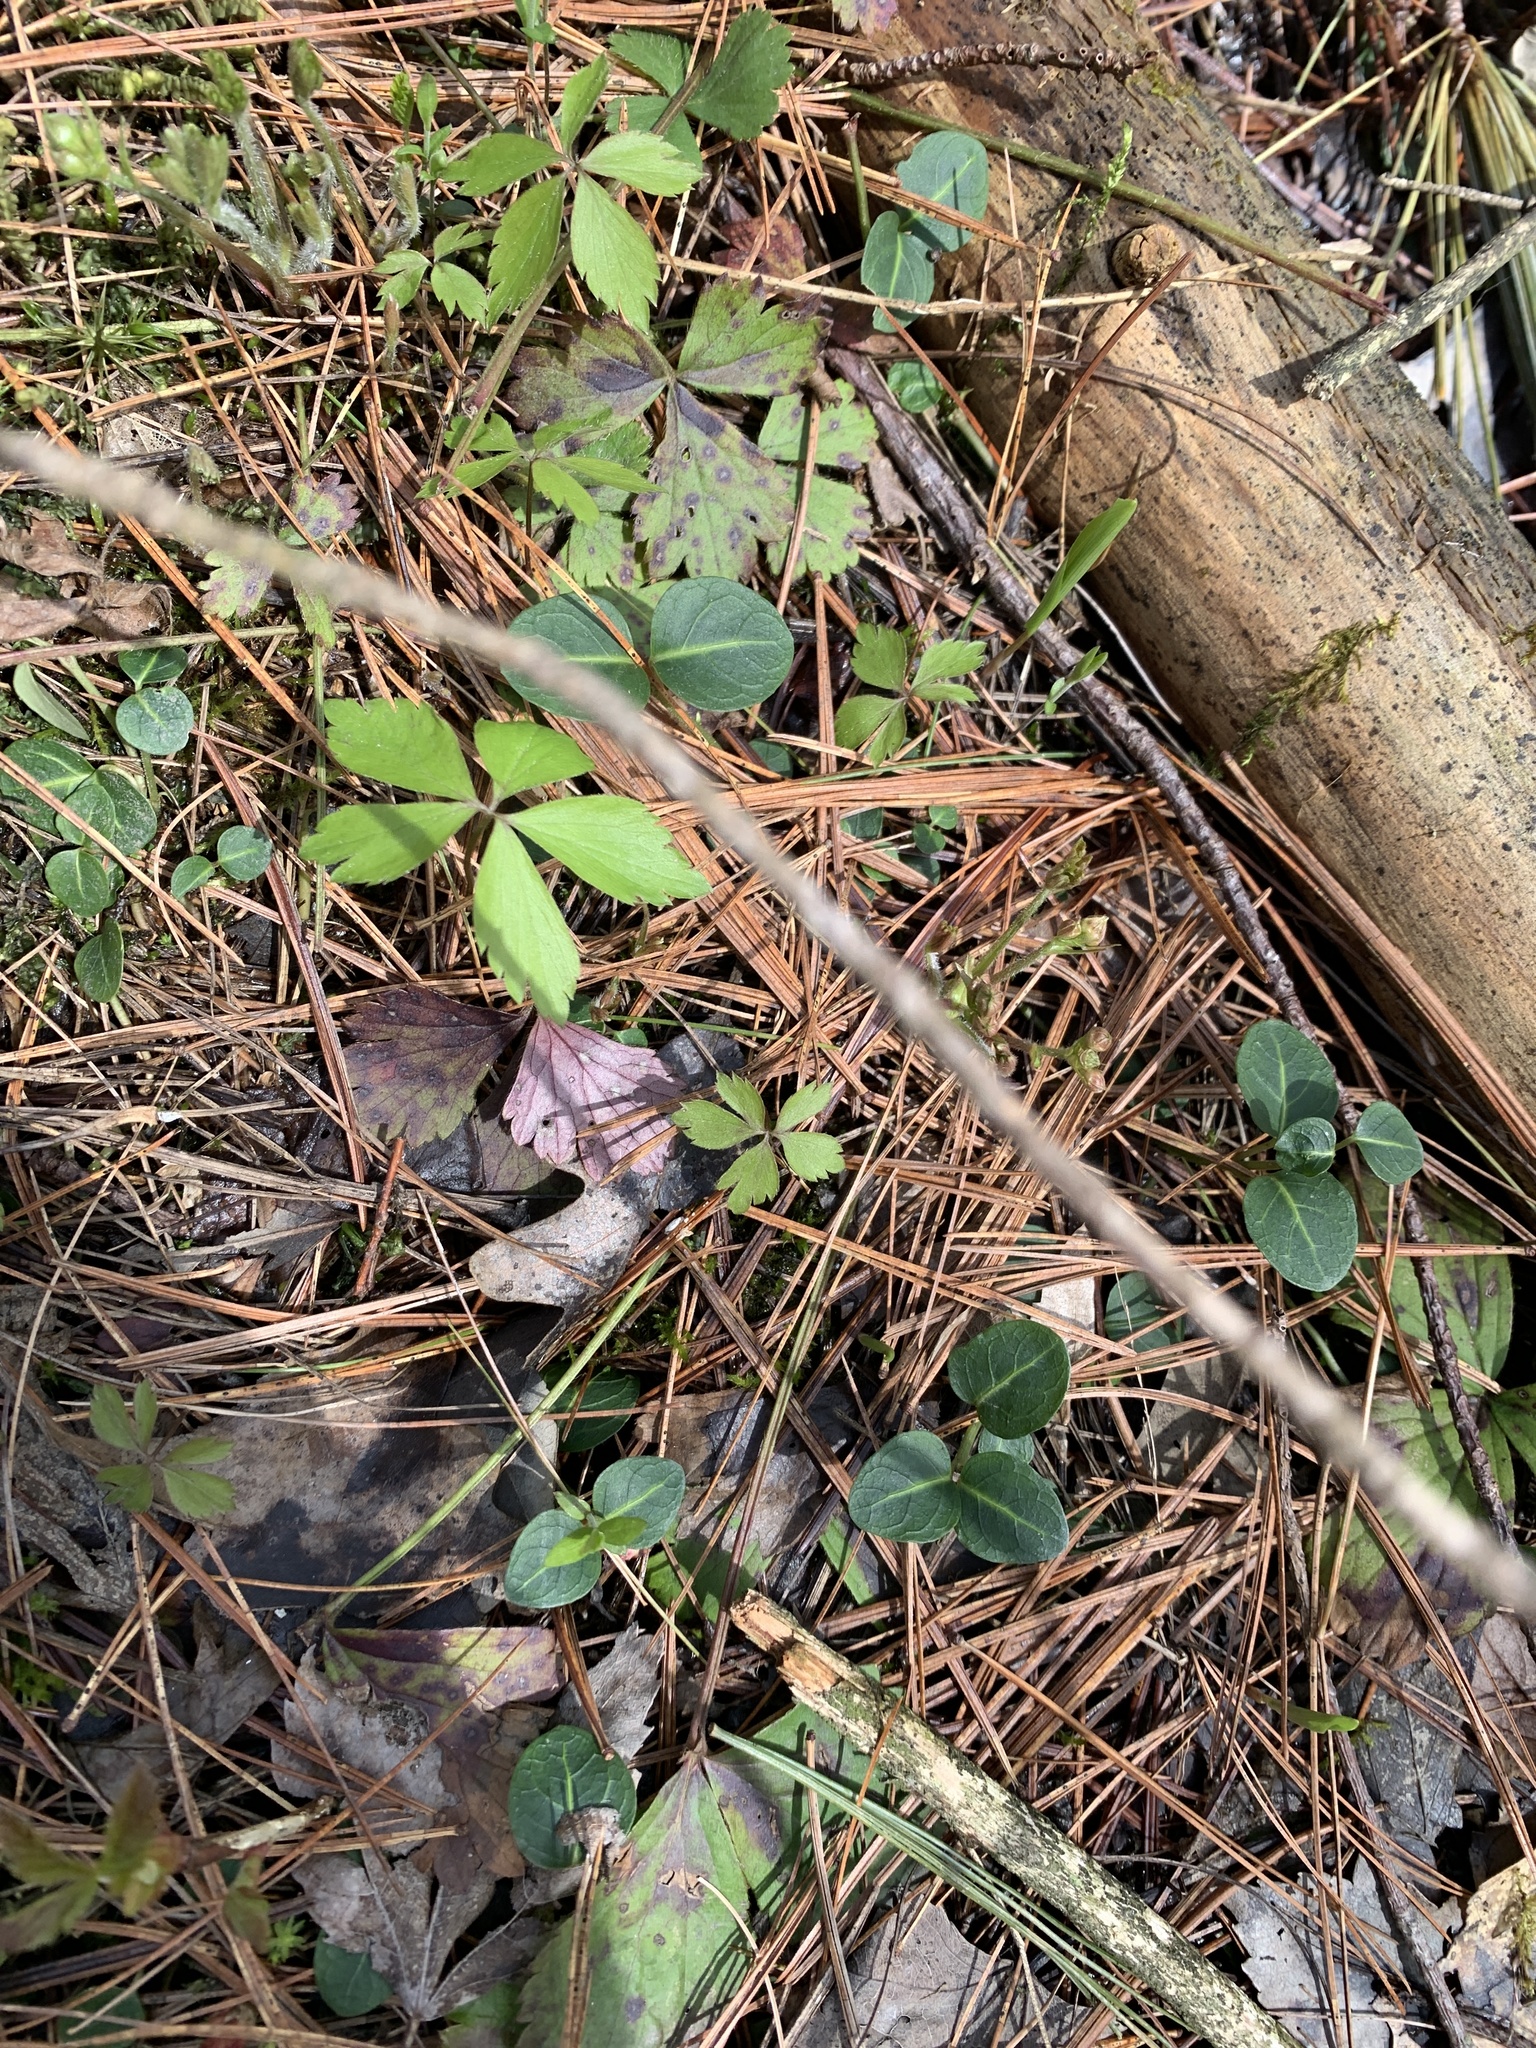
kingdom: Plantae
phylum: Tracheophyta
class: Magnoliopsida
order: Gentianales
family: Rubiaceae
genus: Mitchella
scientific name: Mitchella repens
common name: Partridge-berry
